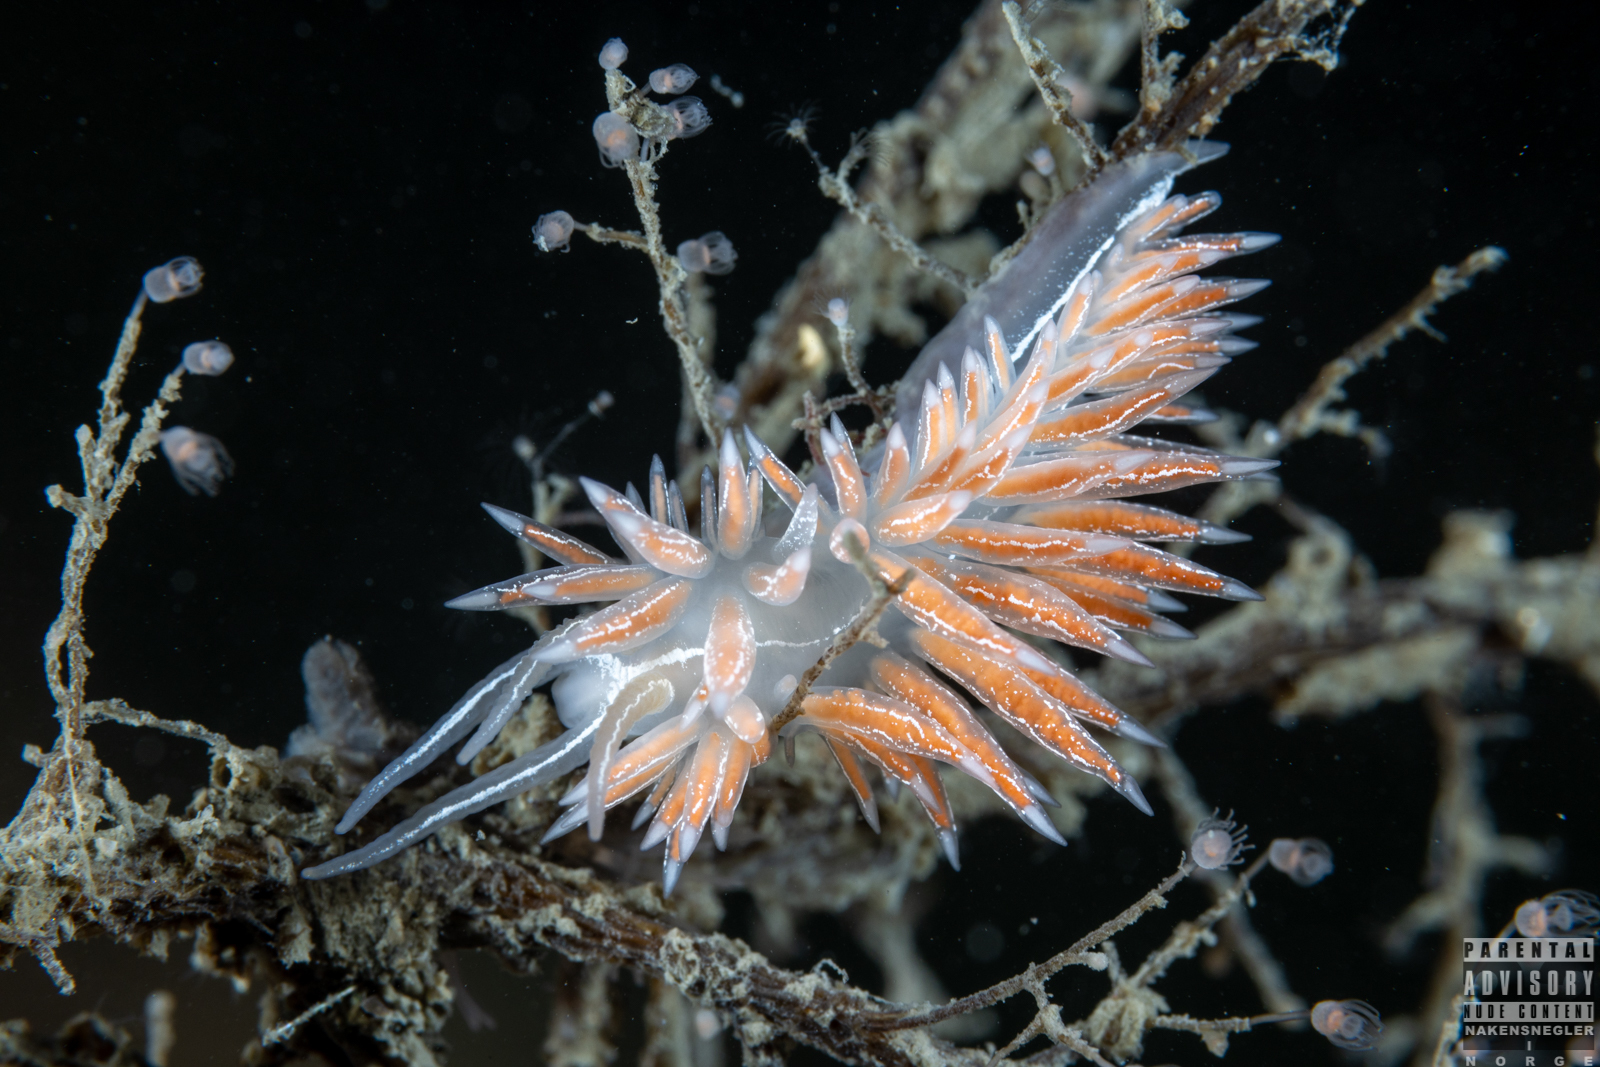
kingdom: Animalia
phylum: Mollusca
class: Gastropoda
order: Nudibranchia
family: Coryphellidae
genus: Coryphella
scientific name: Coryphella chriskaugei
